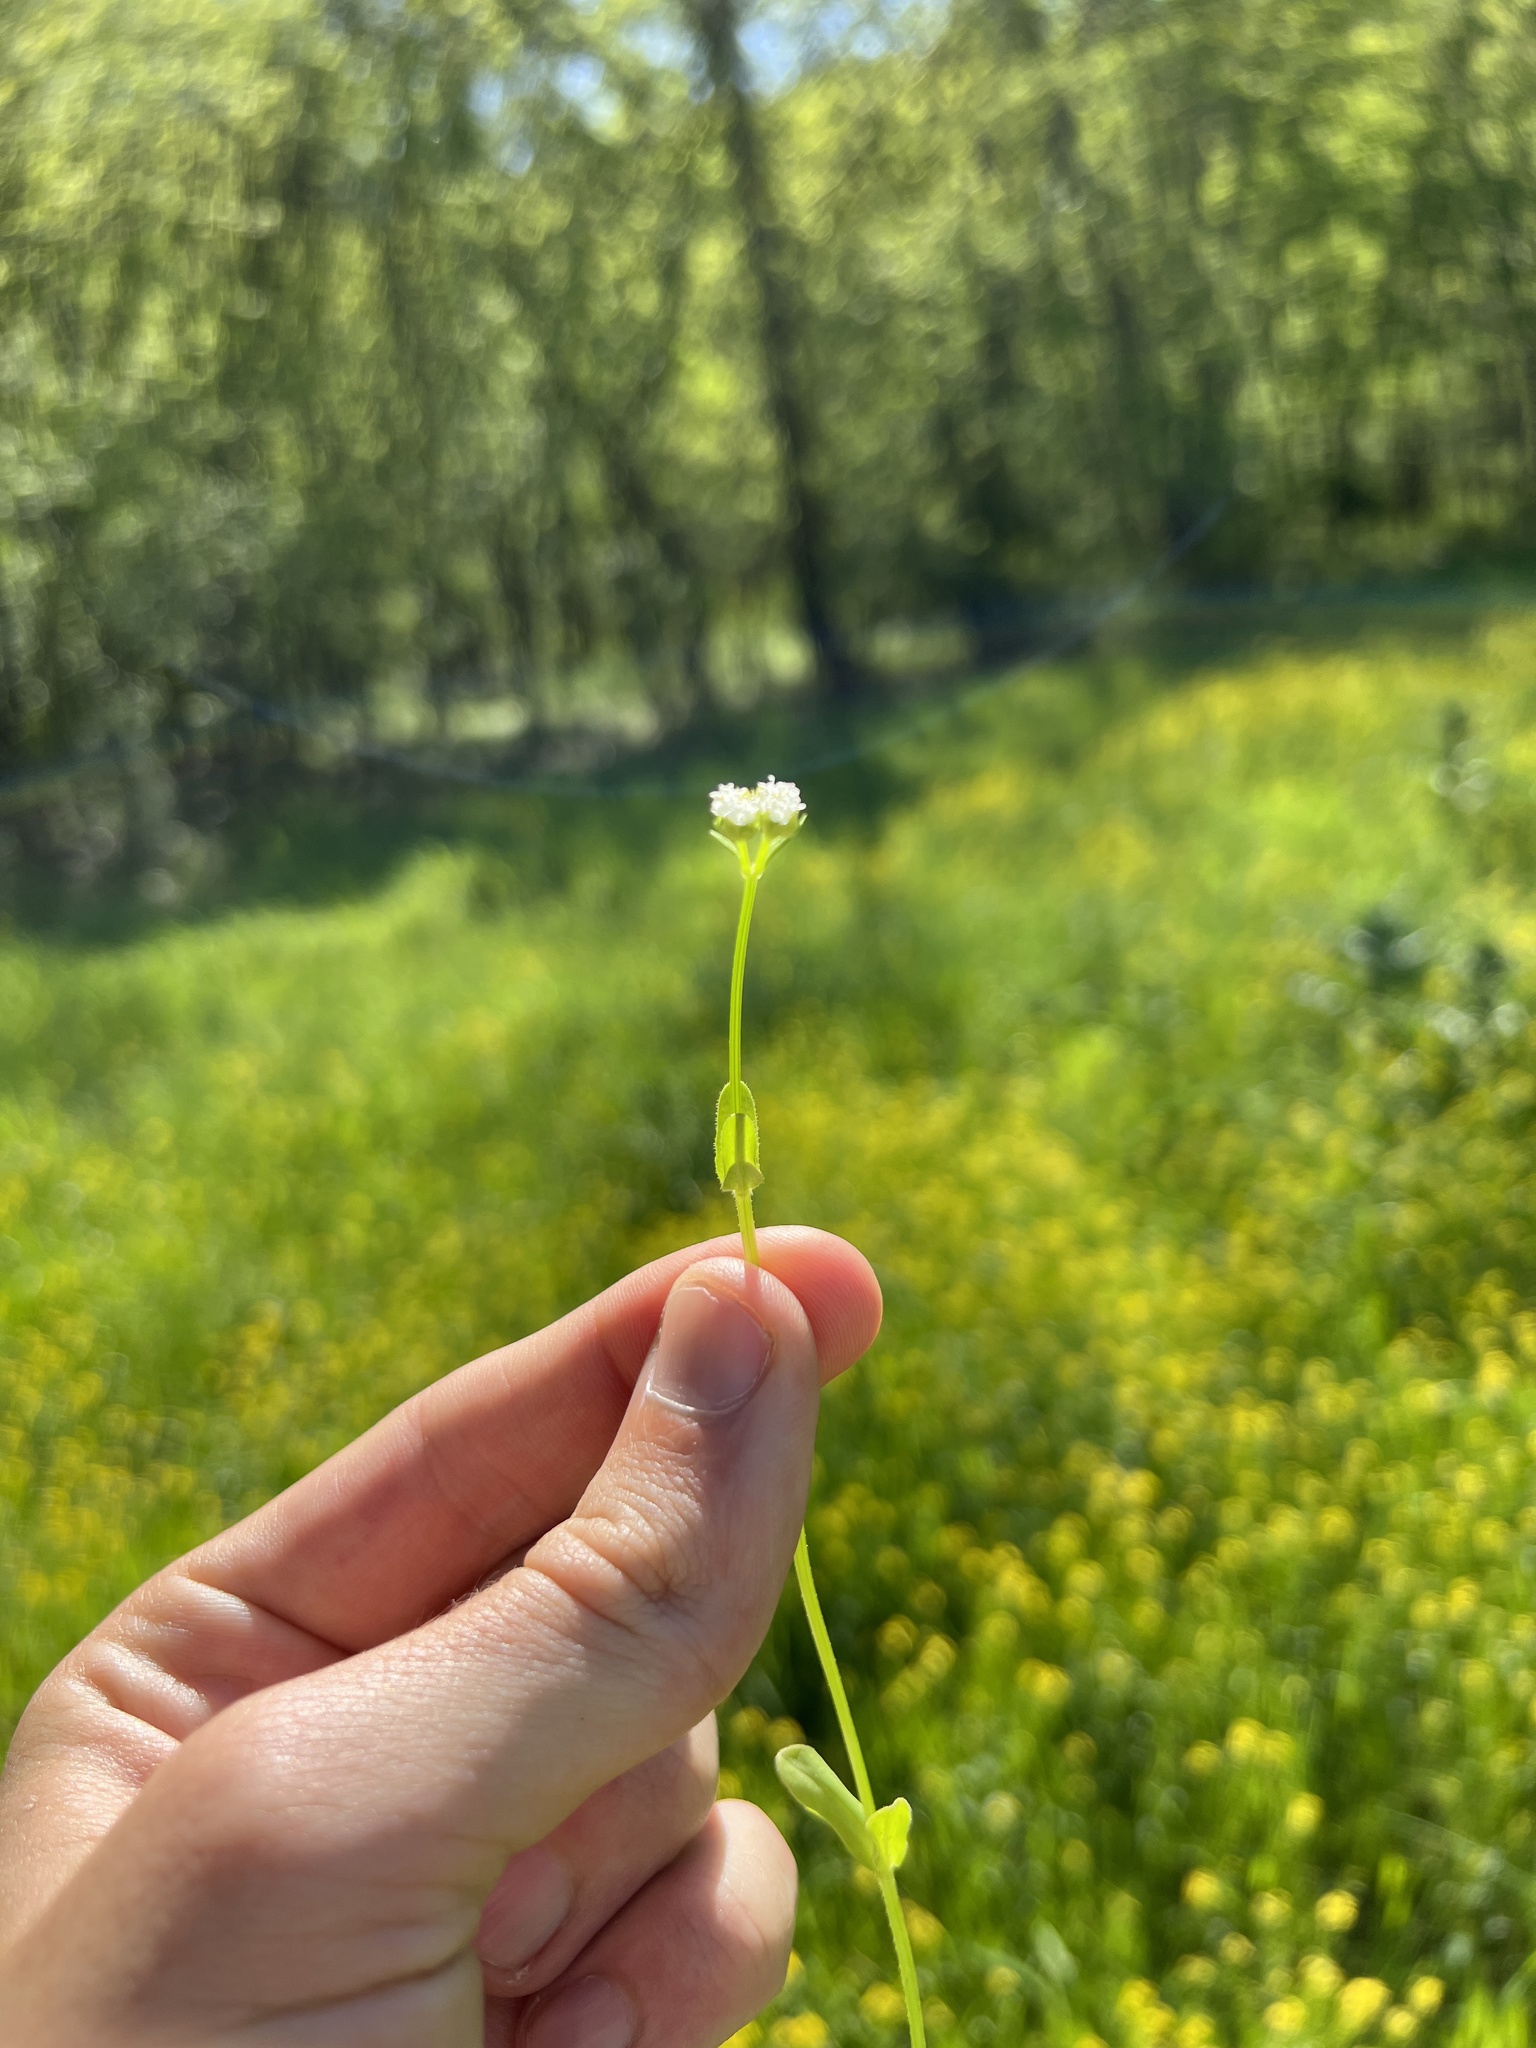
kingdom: Plantae
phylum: Tracheophyta
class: Magnoliopsida
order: Dipsacales
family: Caprifoliaceae
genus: Valerianella
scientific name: Valerianella radiata
